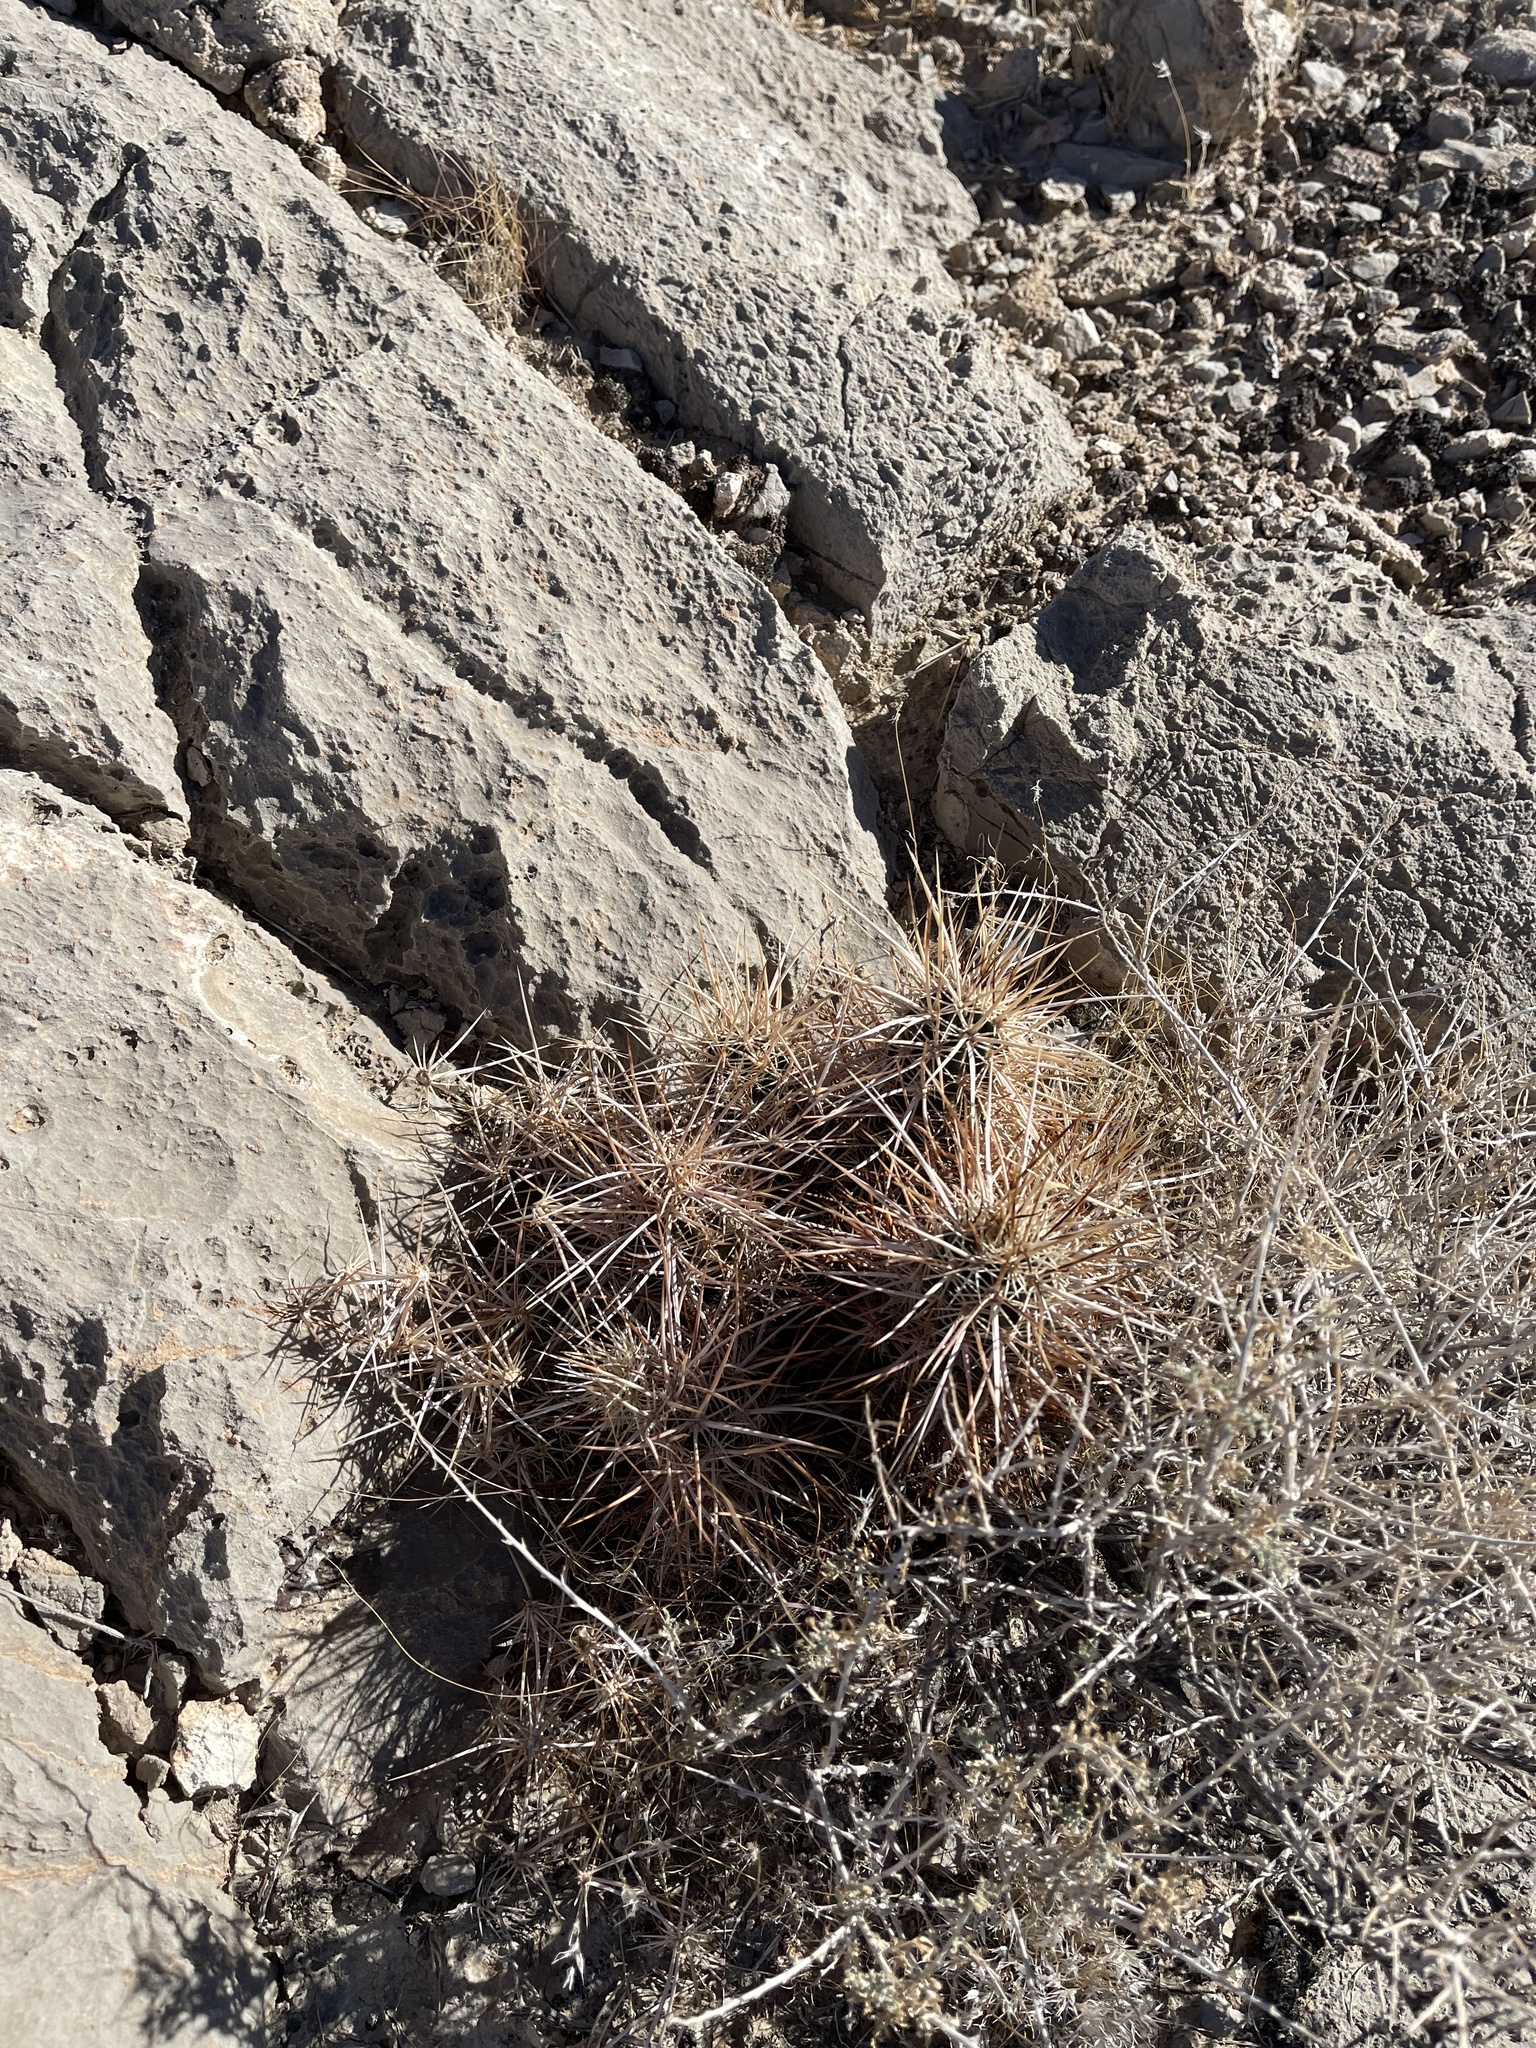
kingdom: Plantae
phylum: Tracheophyta
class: Magnoliopsida
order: Caryophyllales
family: Cactaceae
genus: Echinocereus
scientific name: Echinocereus engelmannii
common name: Engelmann's hedgehog cactus
